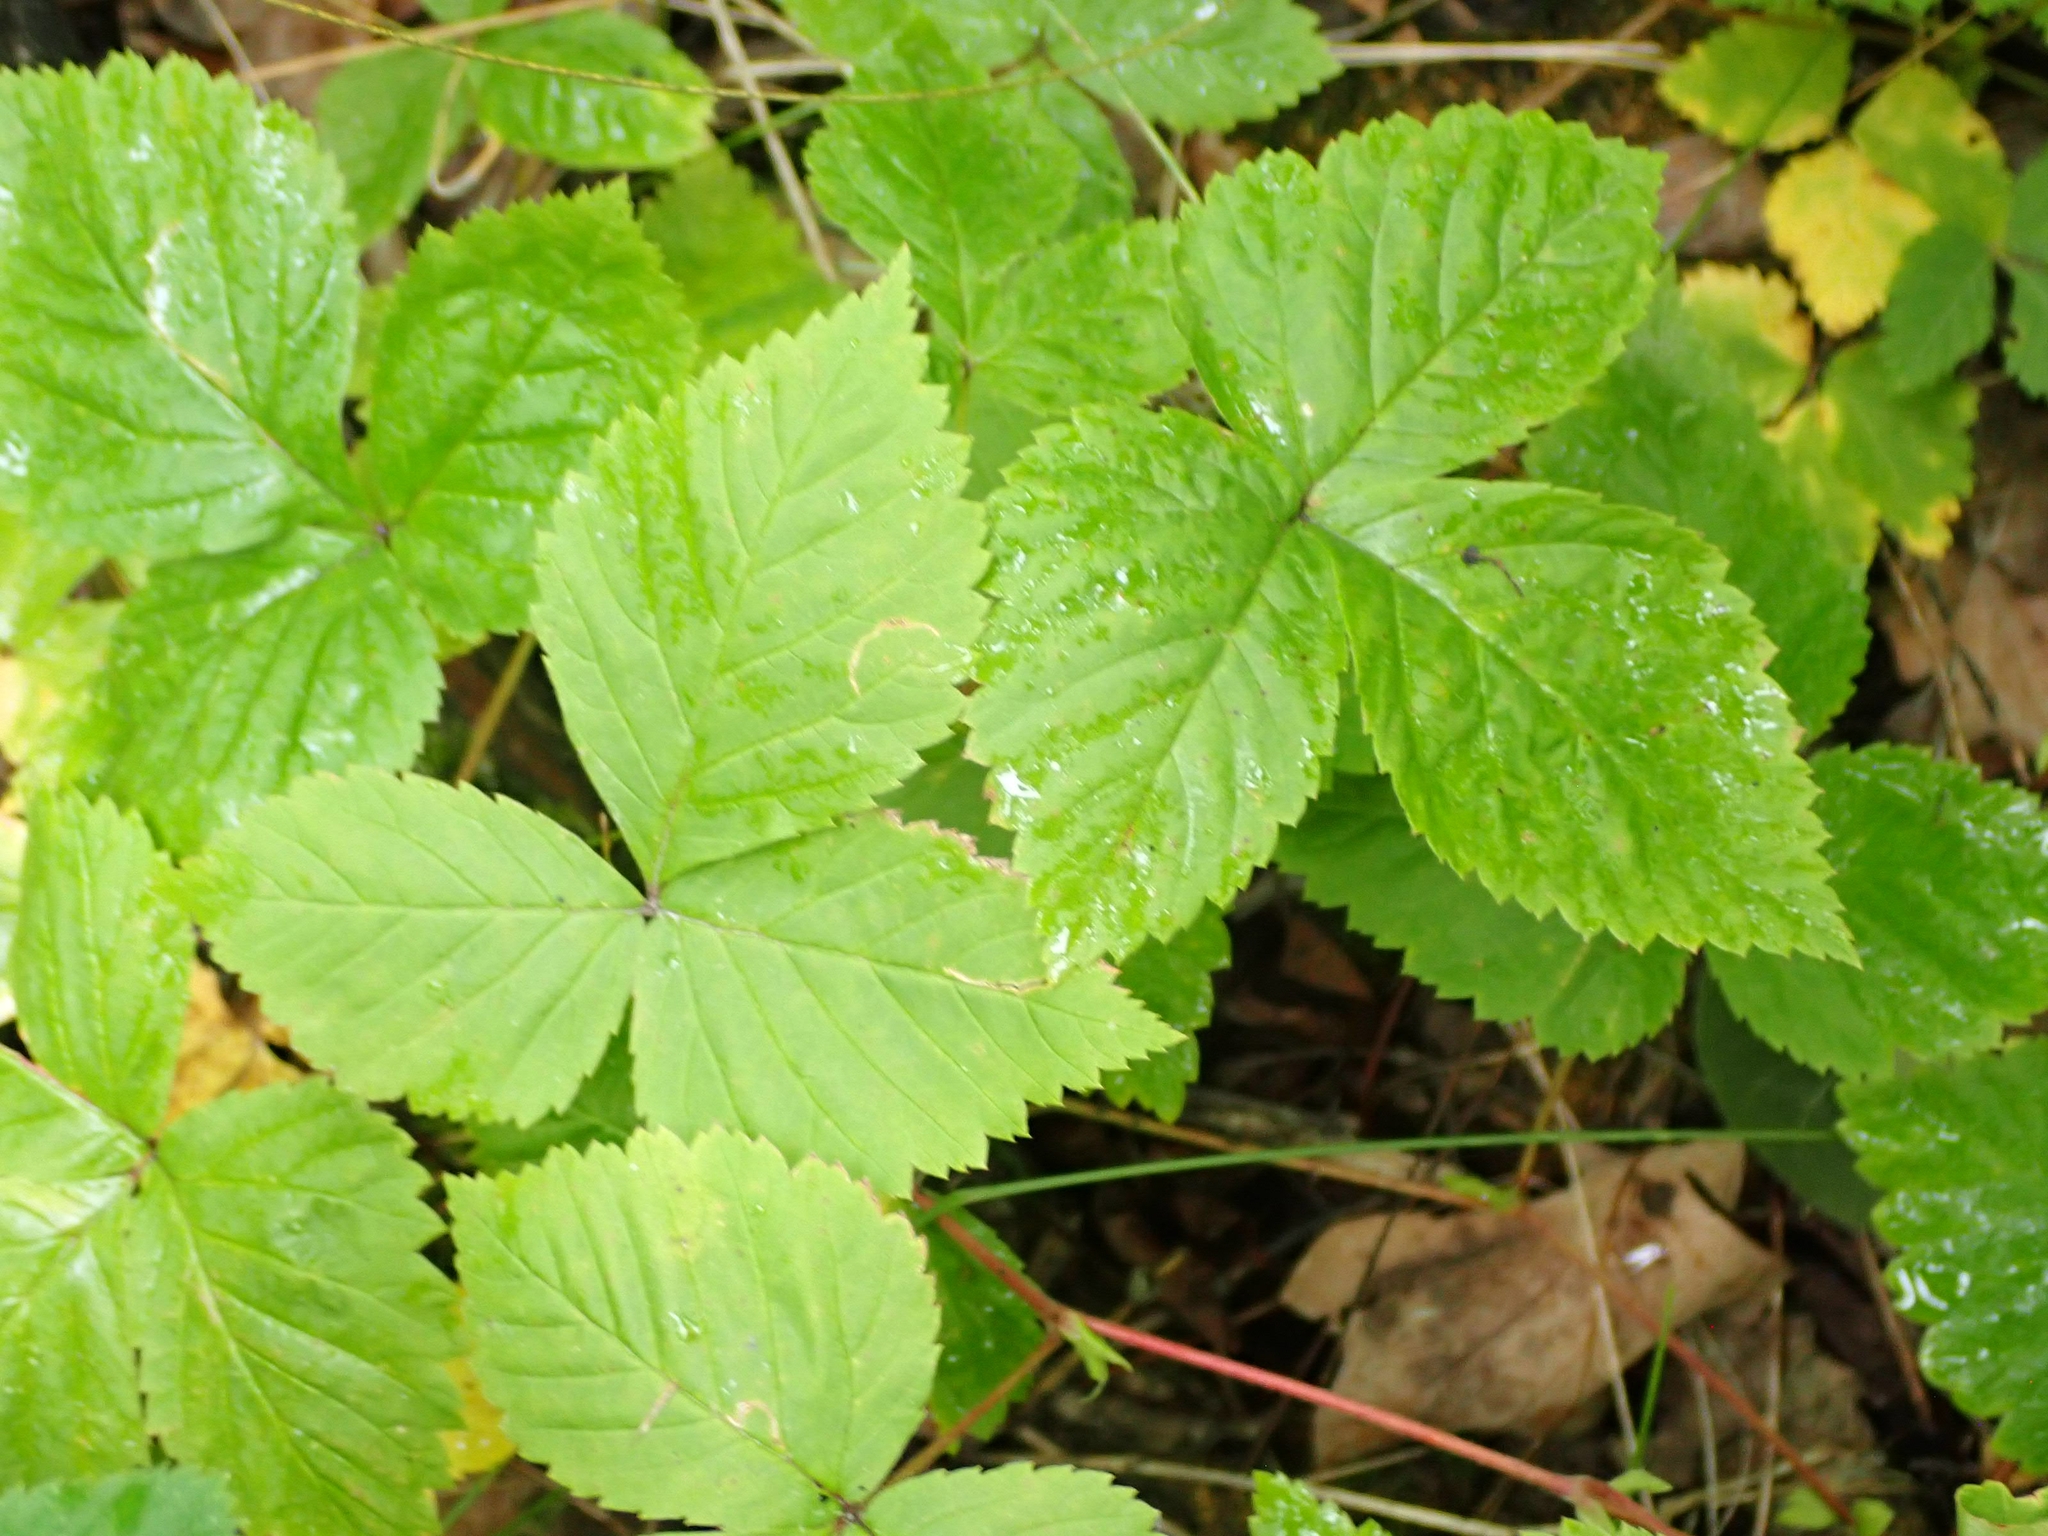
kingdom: Plantae
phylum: Tracheophyta
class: Magnoliopsida
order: Rosales
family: Rosaceae
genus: Rubus
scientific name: Rubus pubescens
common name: Dwarf raspberry
